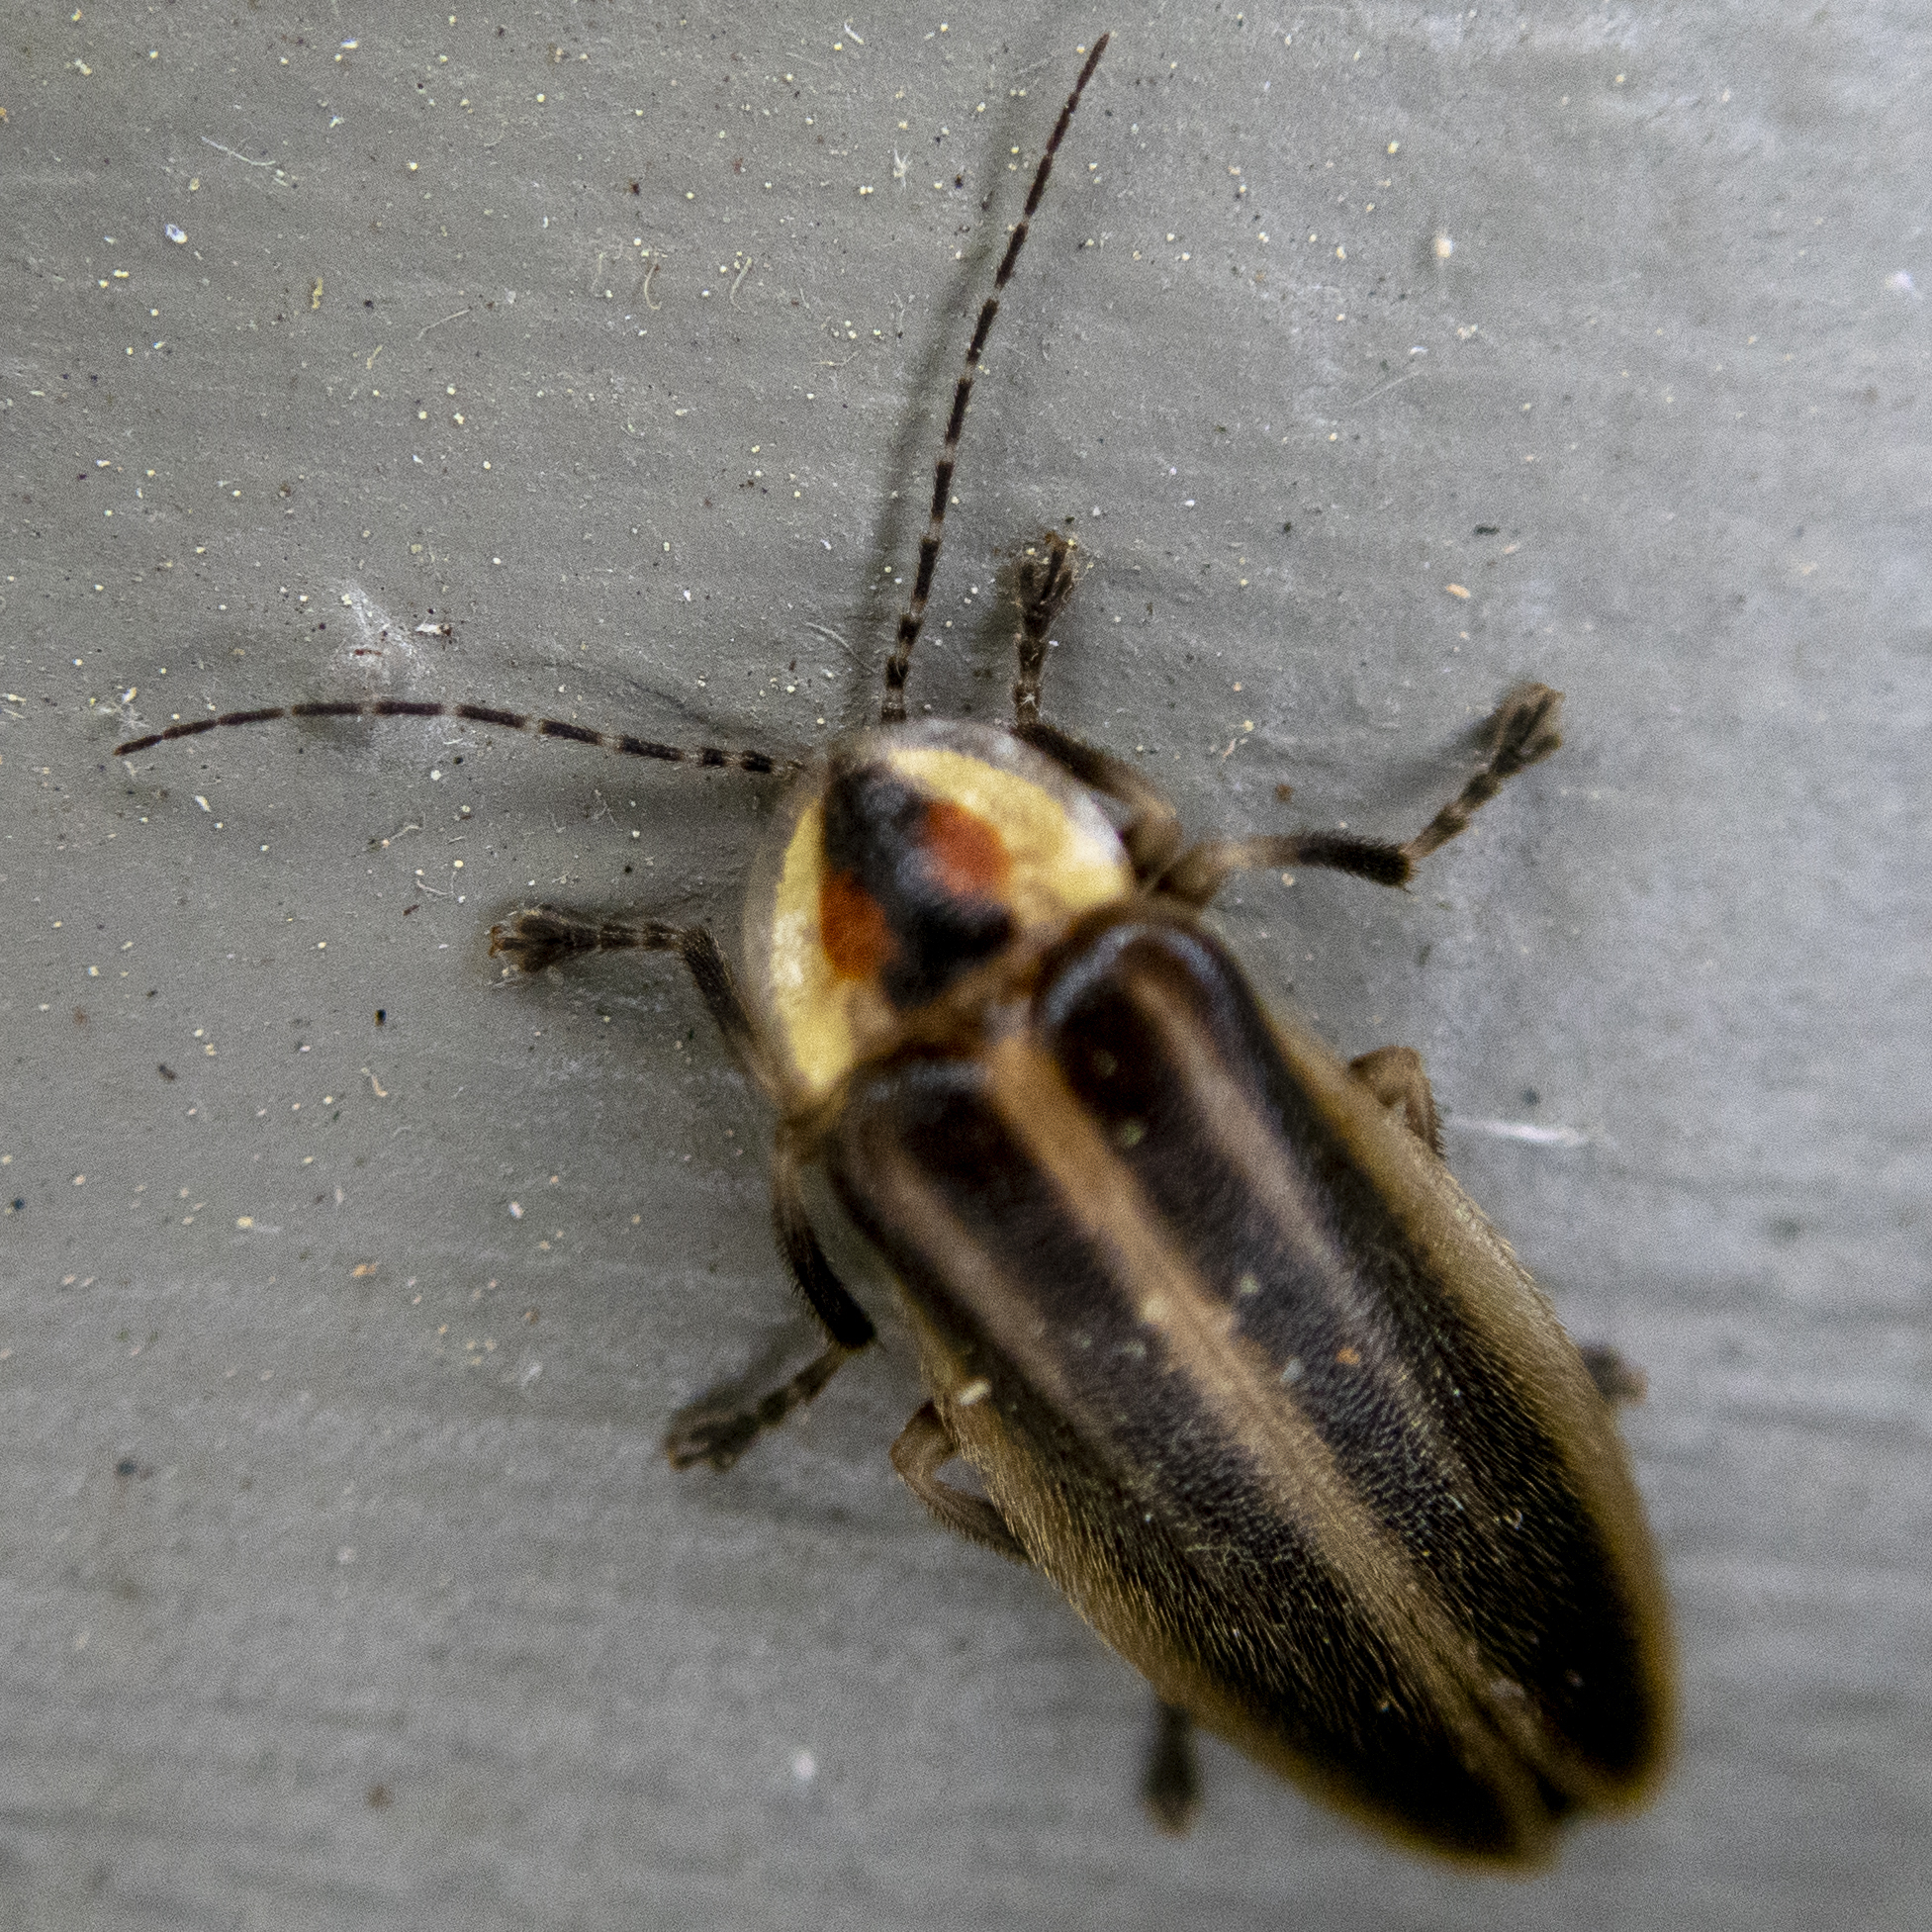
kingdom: Animalia
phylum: Arthropoda
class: Insecta
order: Coleoptera
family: Lampyridae
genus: Photuris
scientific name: Photuris
